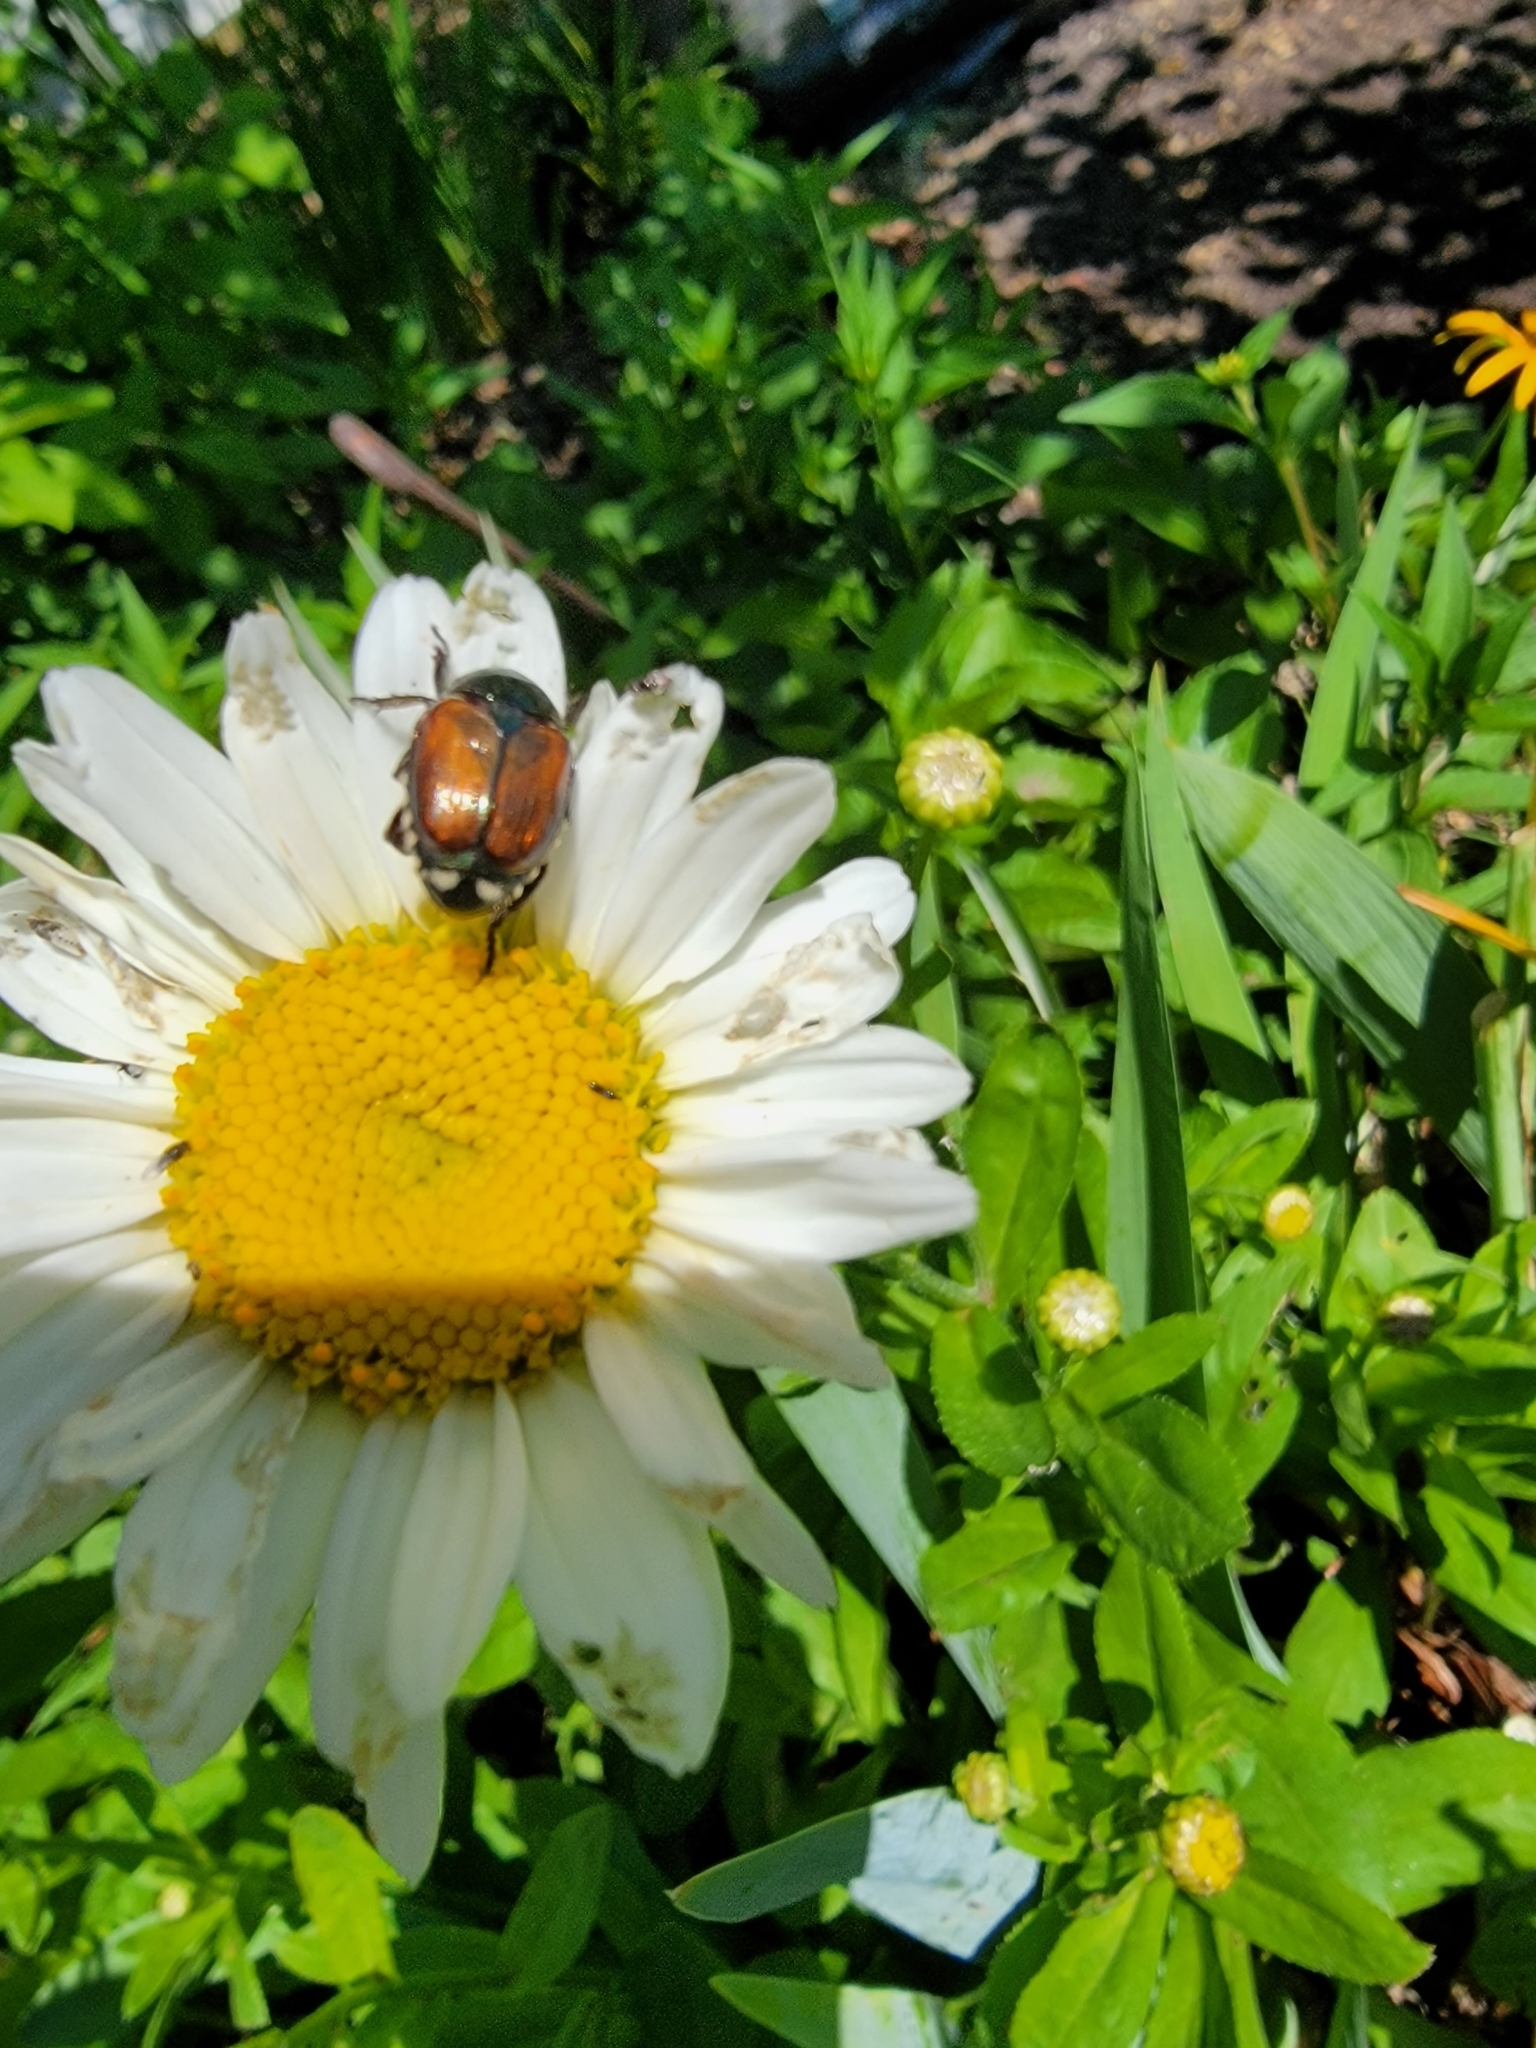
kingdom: Animalia
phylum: Arthropoda
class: Insecta
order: Coleoptera
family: Scarabaeidae
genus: Popillia
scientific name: Popillia japonica
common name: Japanese beetle
